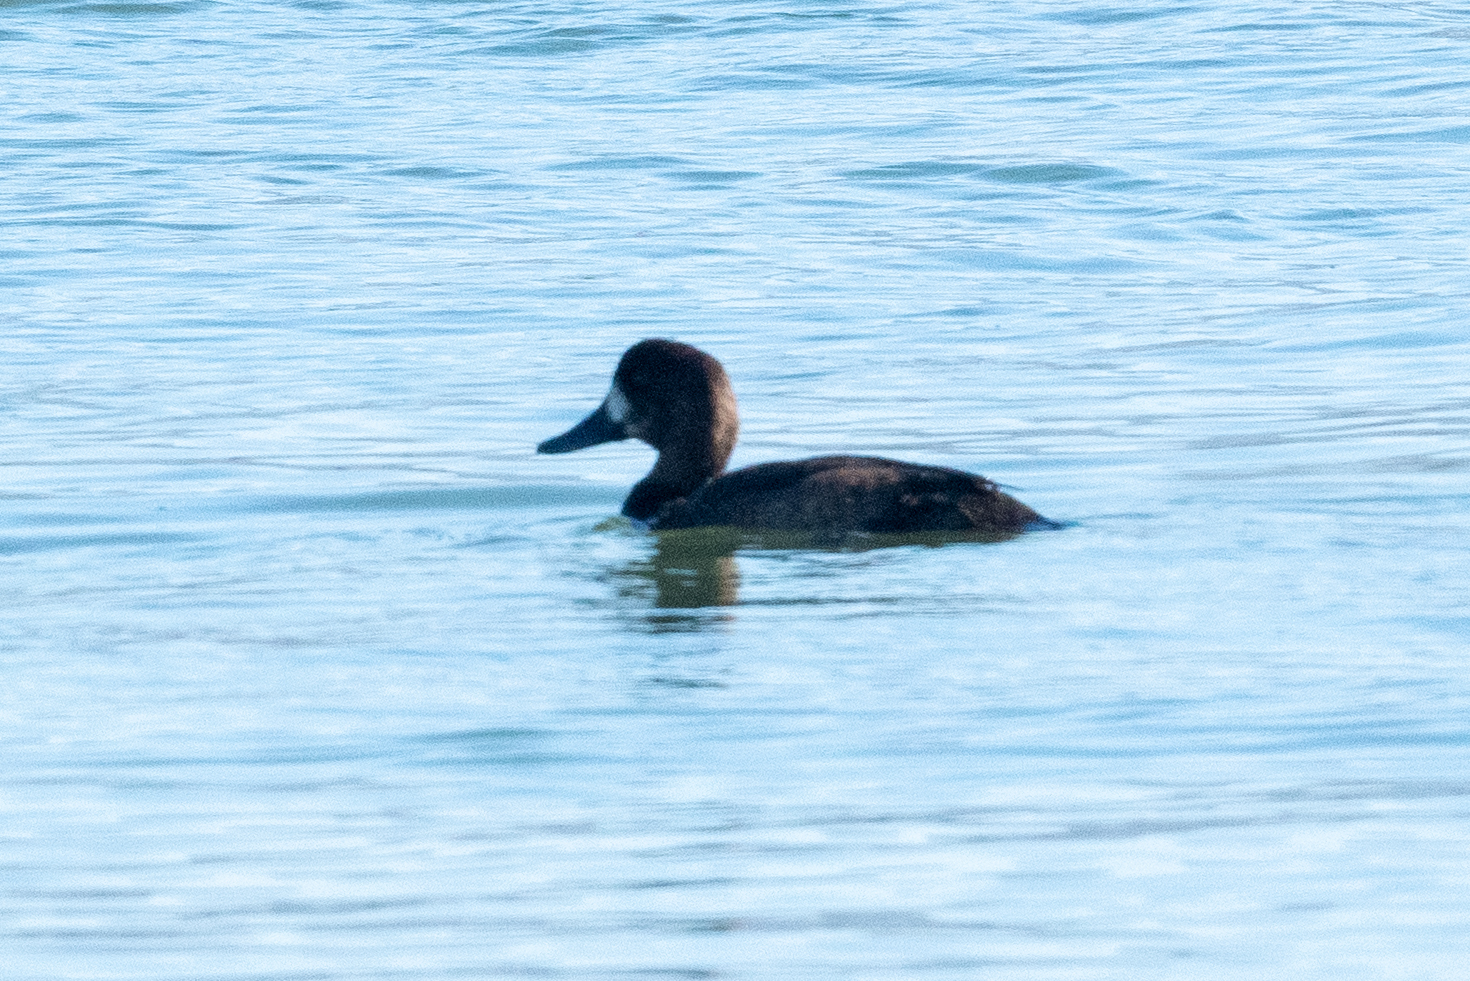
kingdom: Animalia
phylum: Chordata
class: Aves
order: Anseriformes
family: Anatidae
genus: Aythya
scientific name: Aythya marila
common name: Greater scaup
